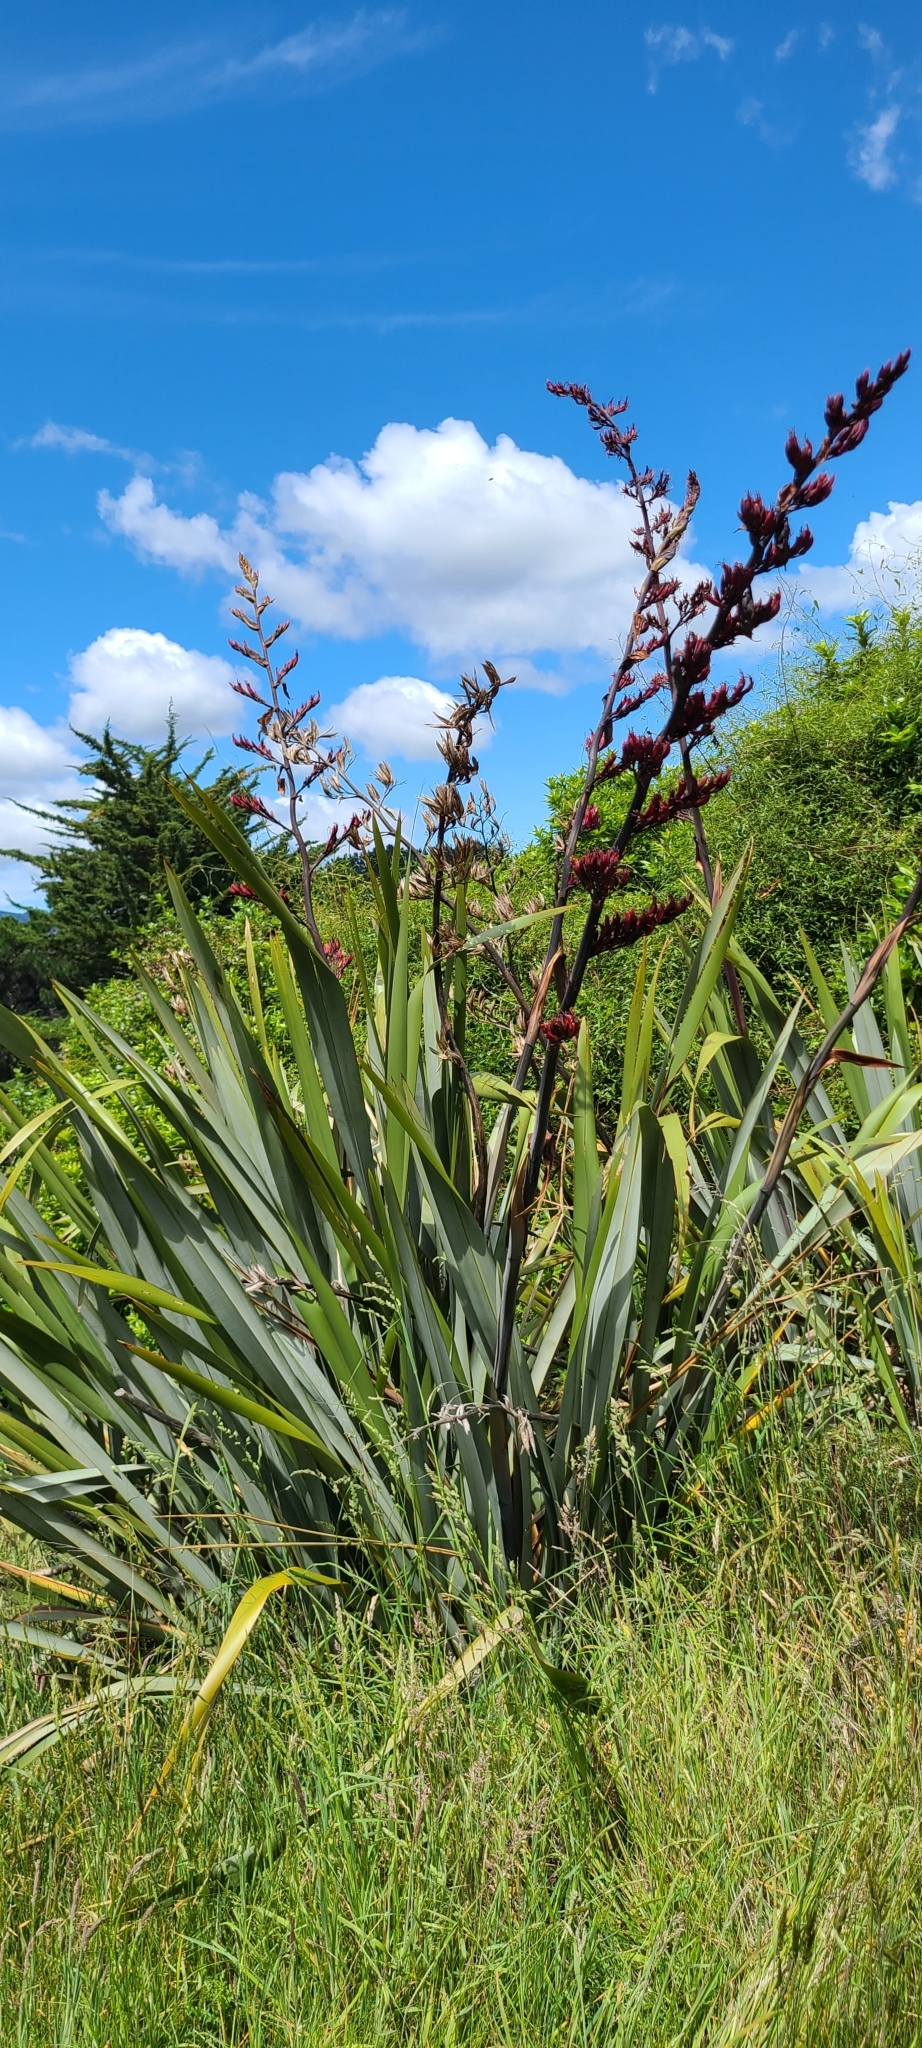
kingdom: Plantae
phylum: Tracheophyta
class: Liliopsida
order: Asparagales
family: Asphodelaceae
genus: Phormium
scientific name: Phormium tenax
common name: New zealand flax
